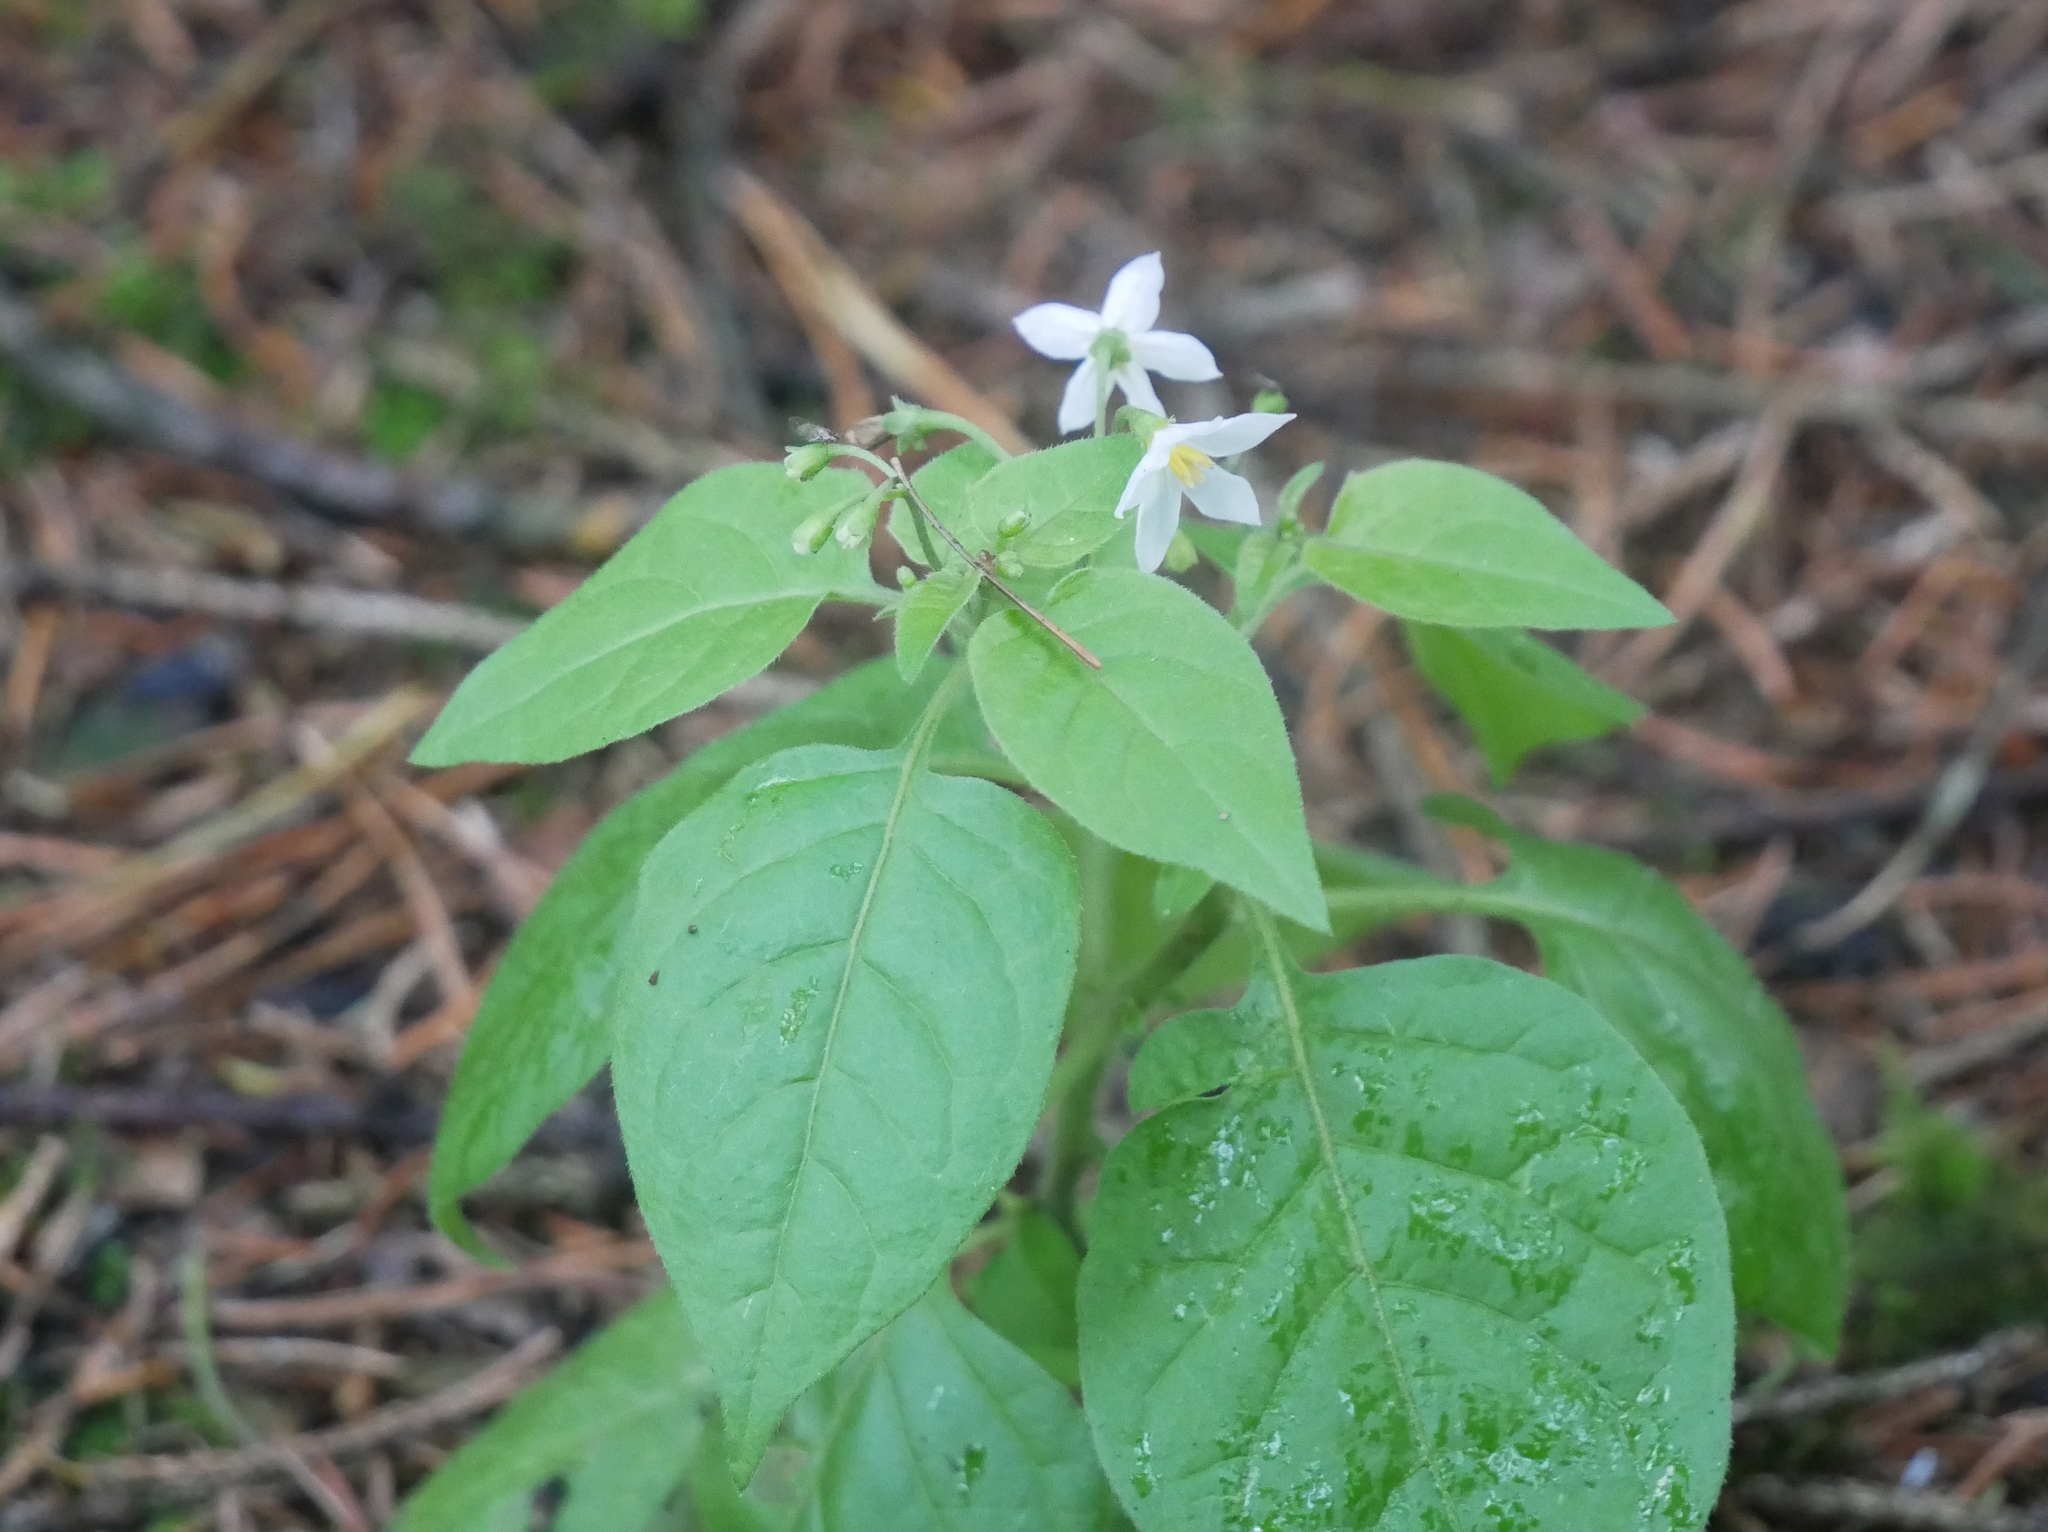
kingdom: Plantae
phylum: Tracheophyta
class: Magnoliopsida
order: Solanales
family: Solanaceae
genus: Solanum
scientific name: Solanum nigrum
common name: Black nightshade
